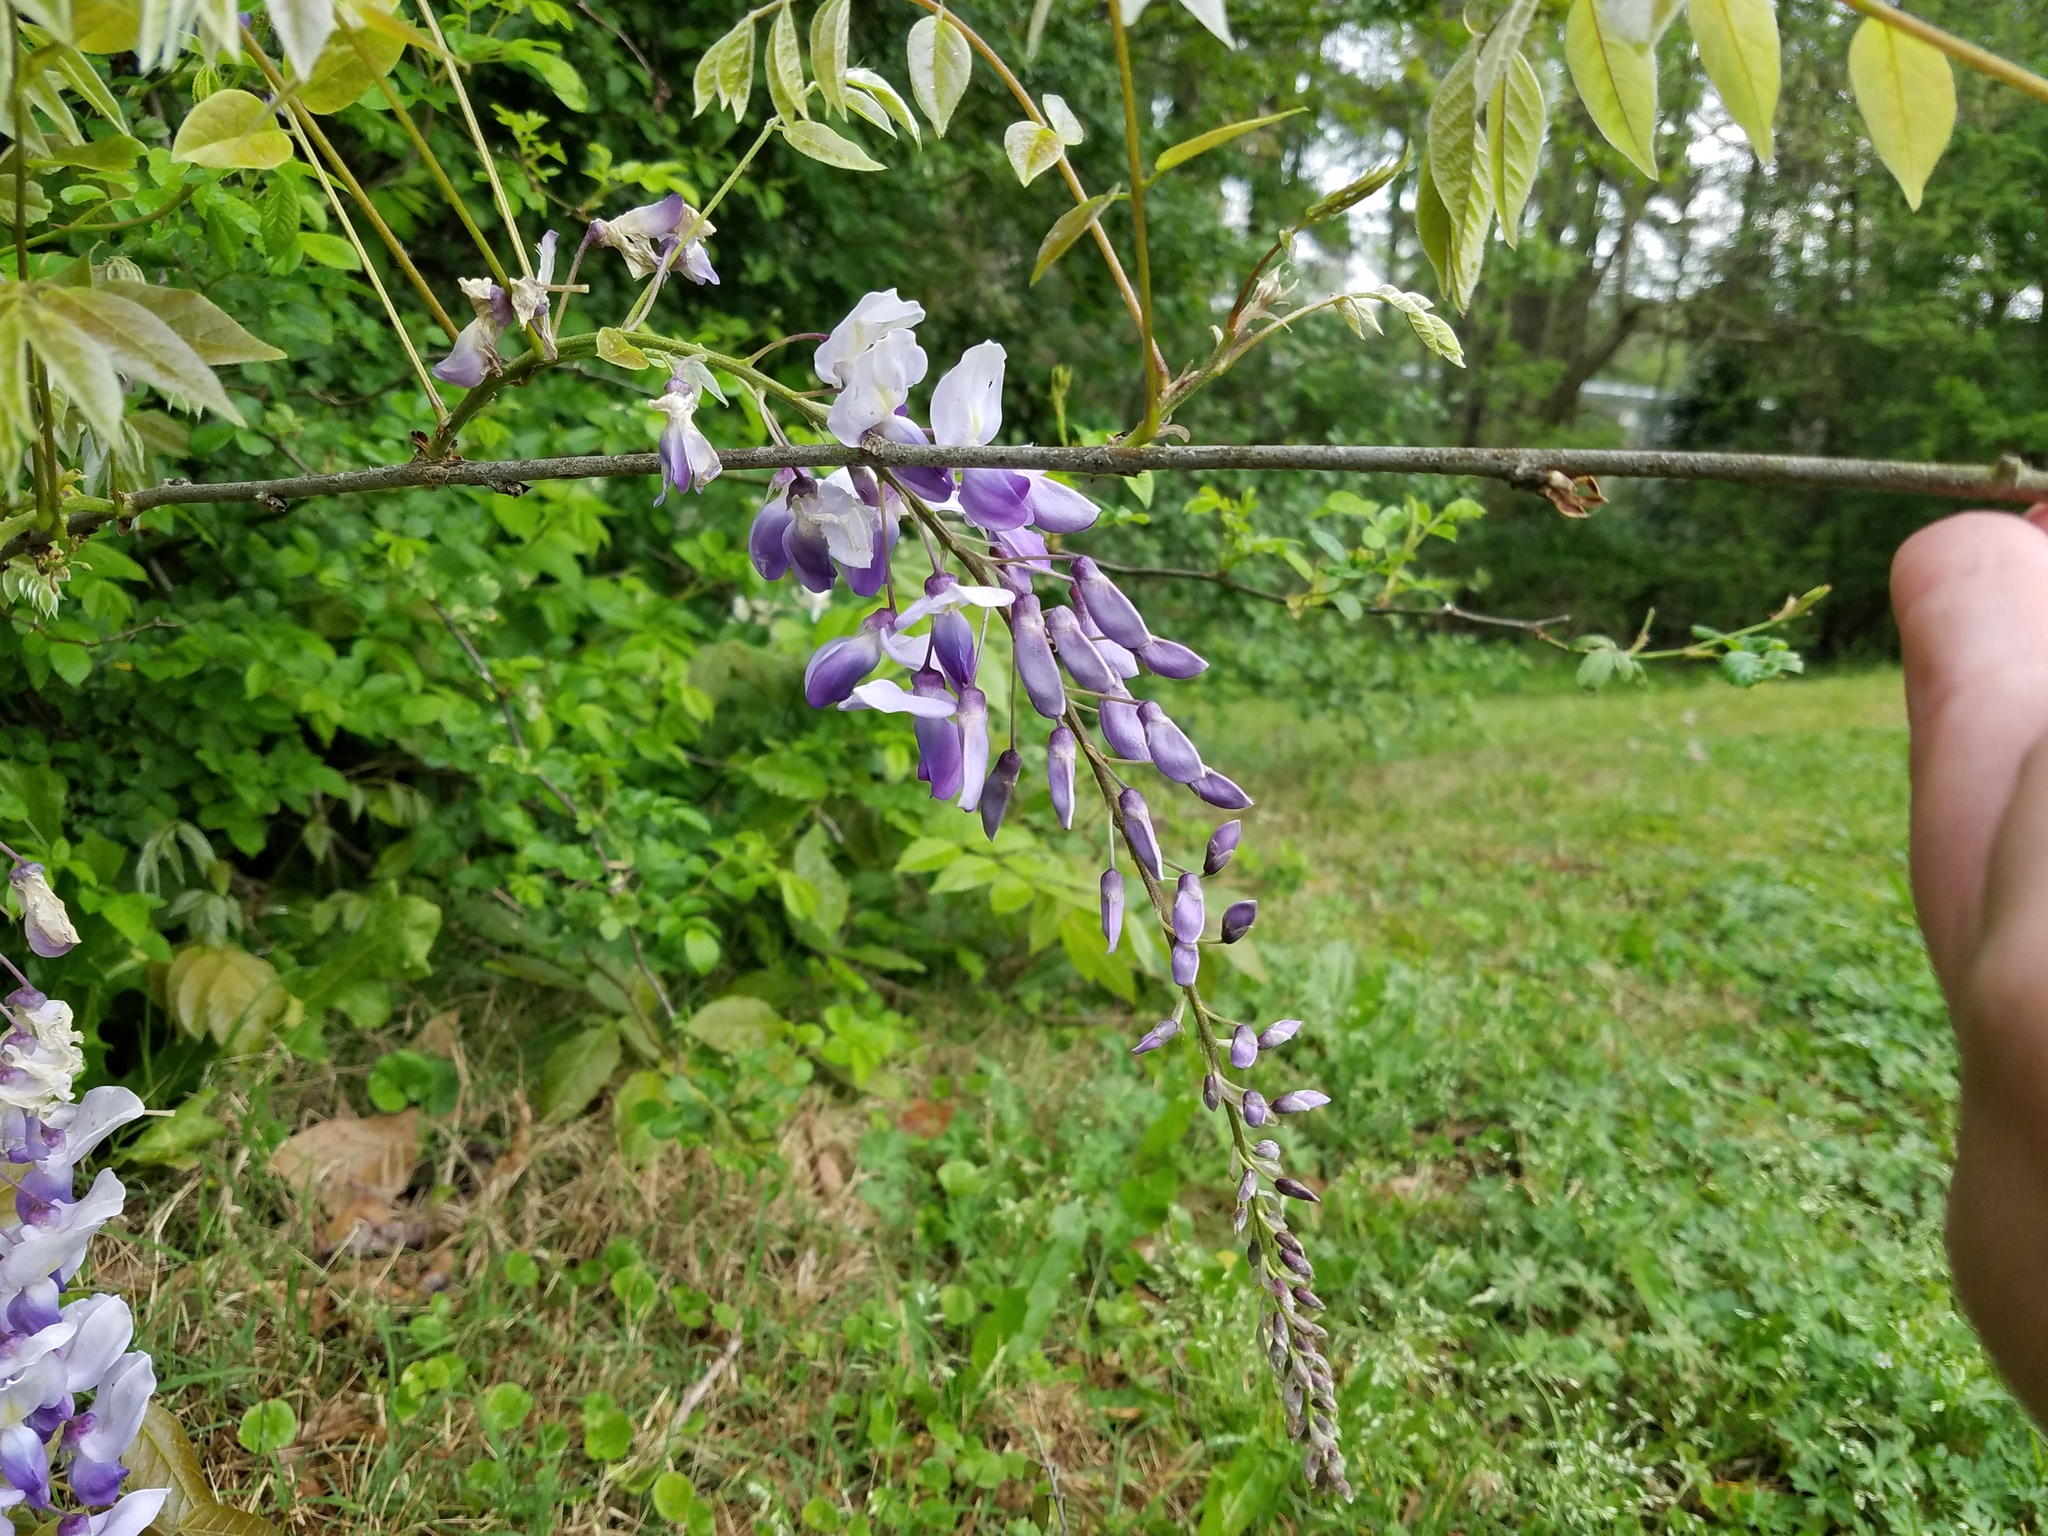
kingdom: Plantae
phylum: Tracheophyta
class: Magnoliopsida
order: Fabales
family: Fabaceae
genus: Wisteria
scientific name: Wisteria sinensis
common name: Chinese wisteria
